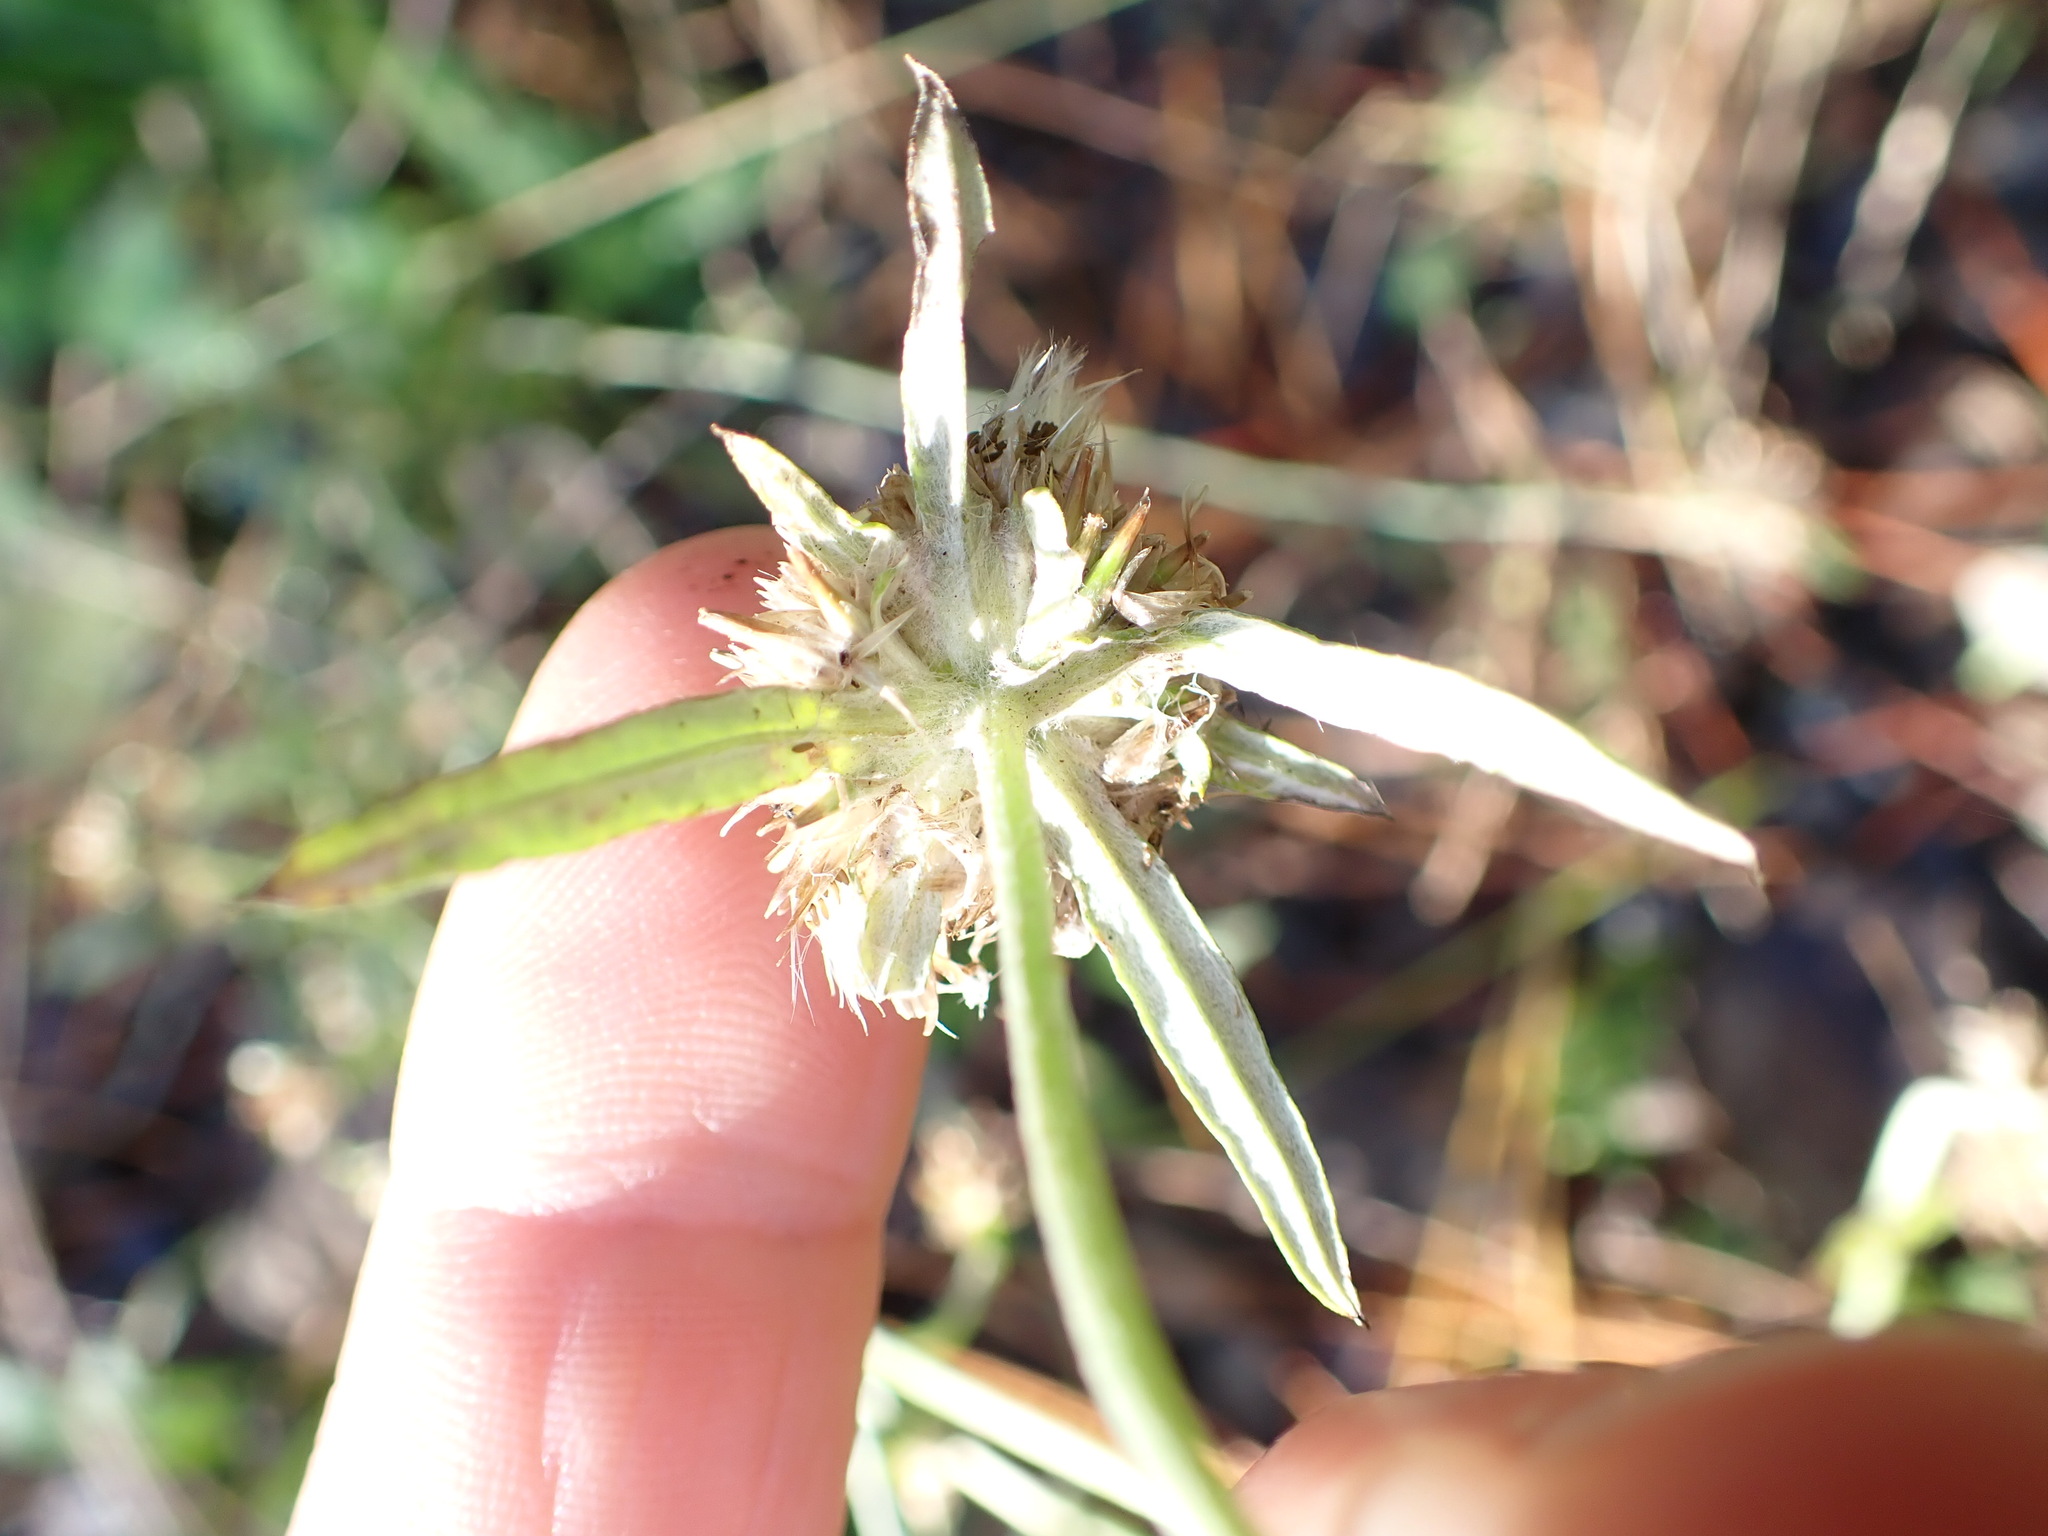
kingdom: Plantae
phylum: Tracheophyta
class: Magnoliopsida
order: Asterales
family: Asteraceae
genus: Euchiton
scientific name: Euchiton sphaericus
